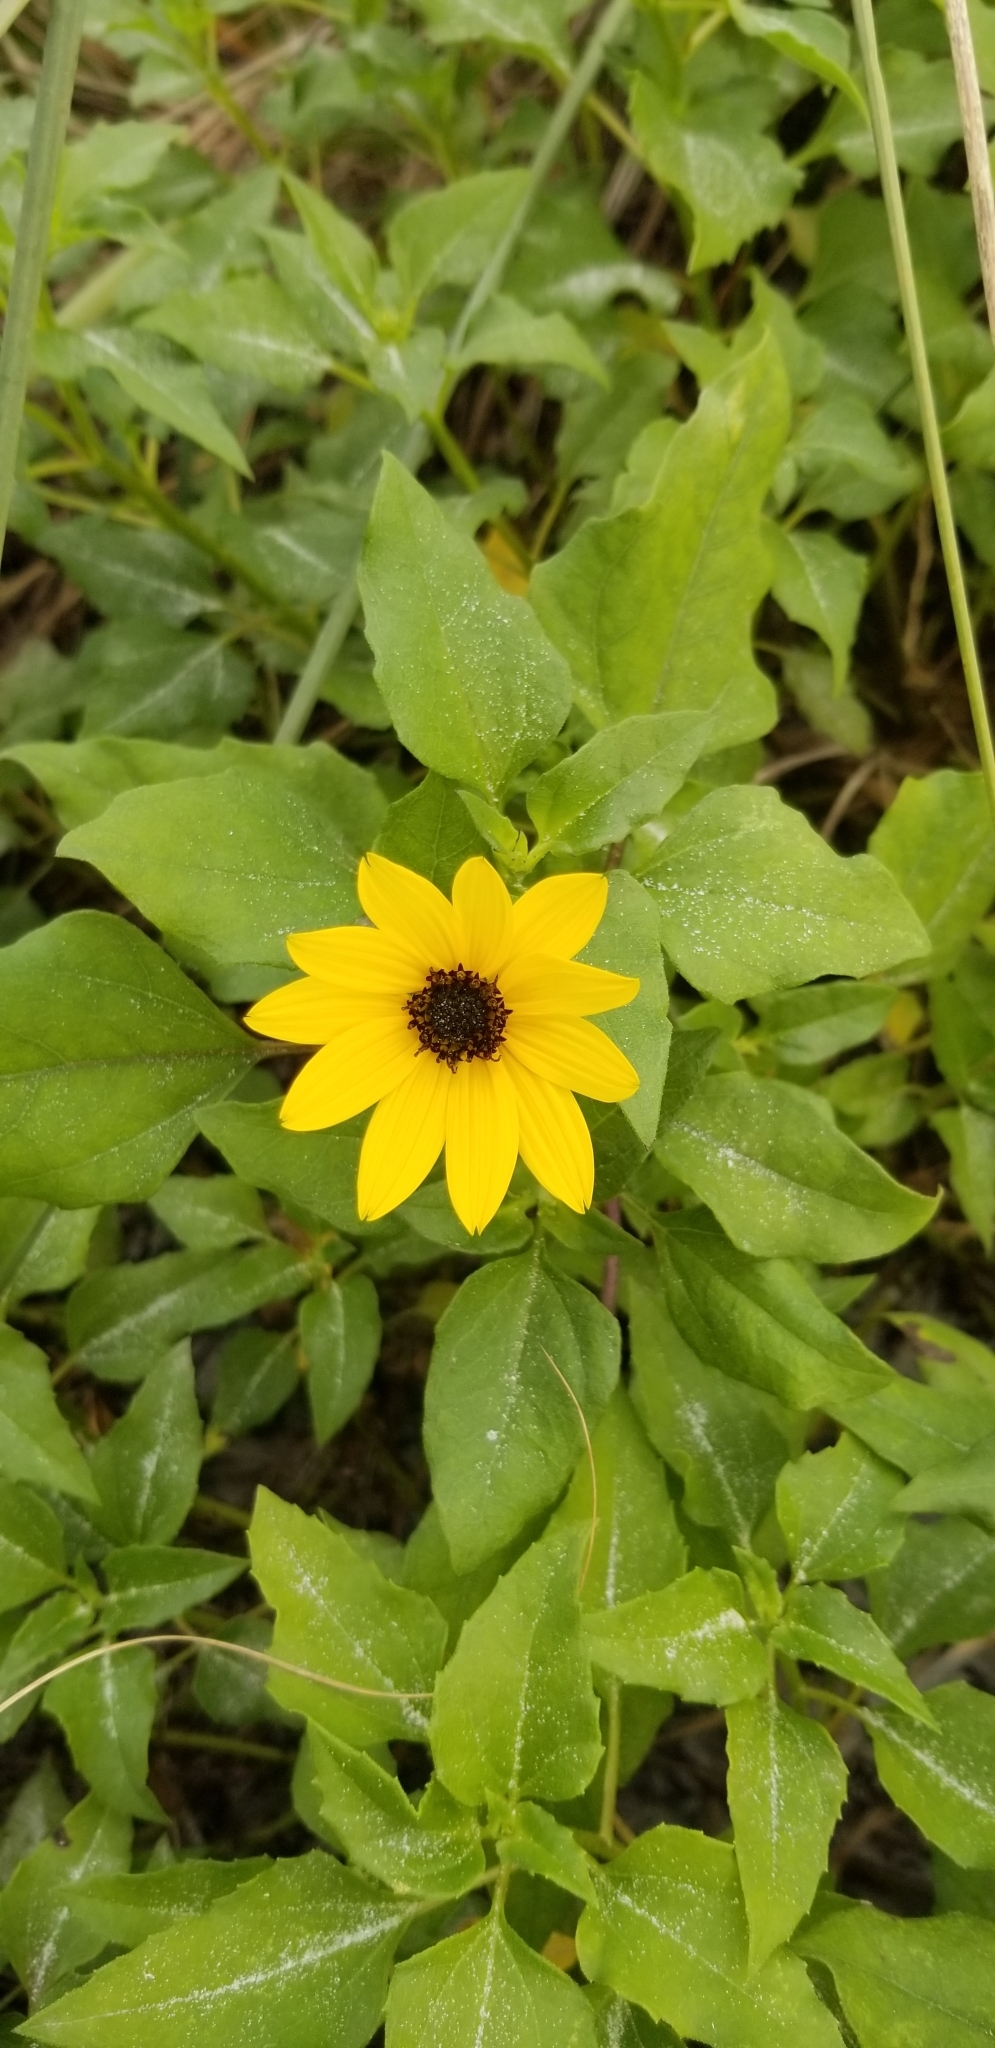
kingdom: Plantae
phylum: Tracheophyta
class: Magnoliopsida
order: Asterales
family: Asteraceae
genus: Helianthus
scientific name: Helianthus debilis
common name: Weak sunflower
